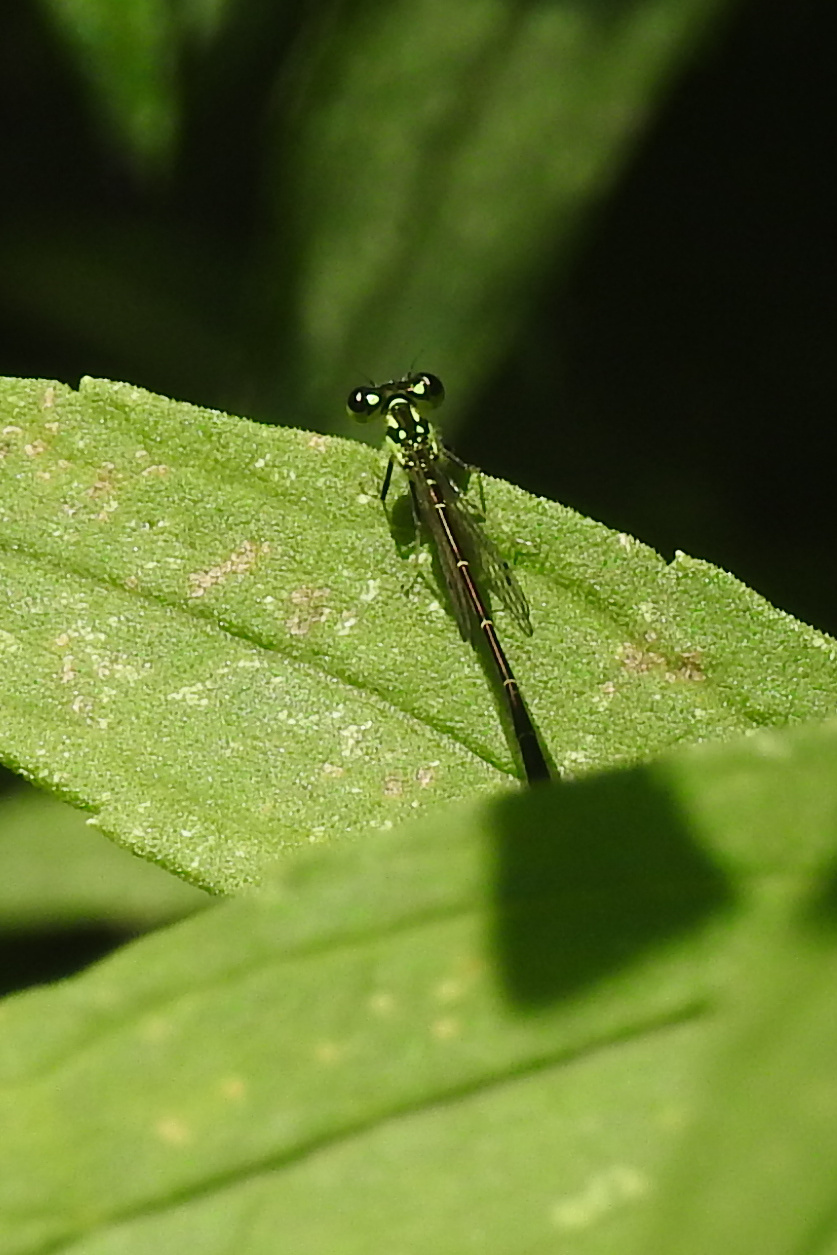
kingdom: Animalia
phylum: Arthropoda
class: Insecta
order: Odonata
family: Coenagrionidae
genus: Ischnura
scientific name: Ischnura posita
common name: Fragile forktail
